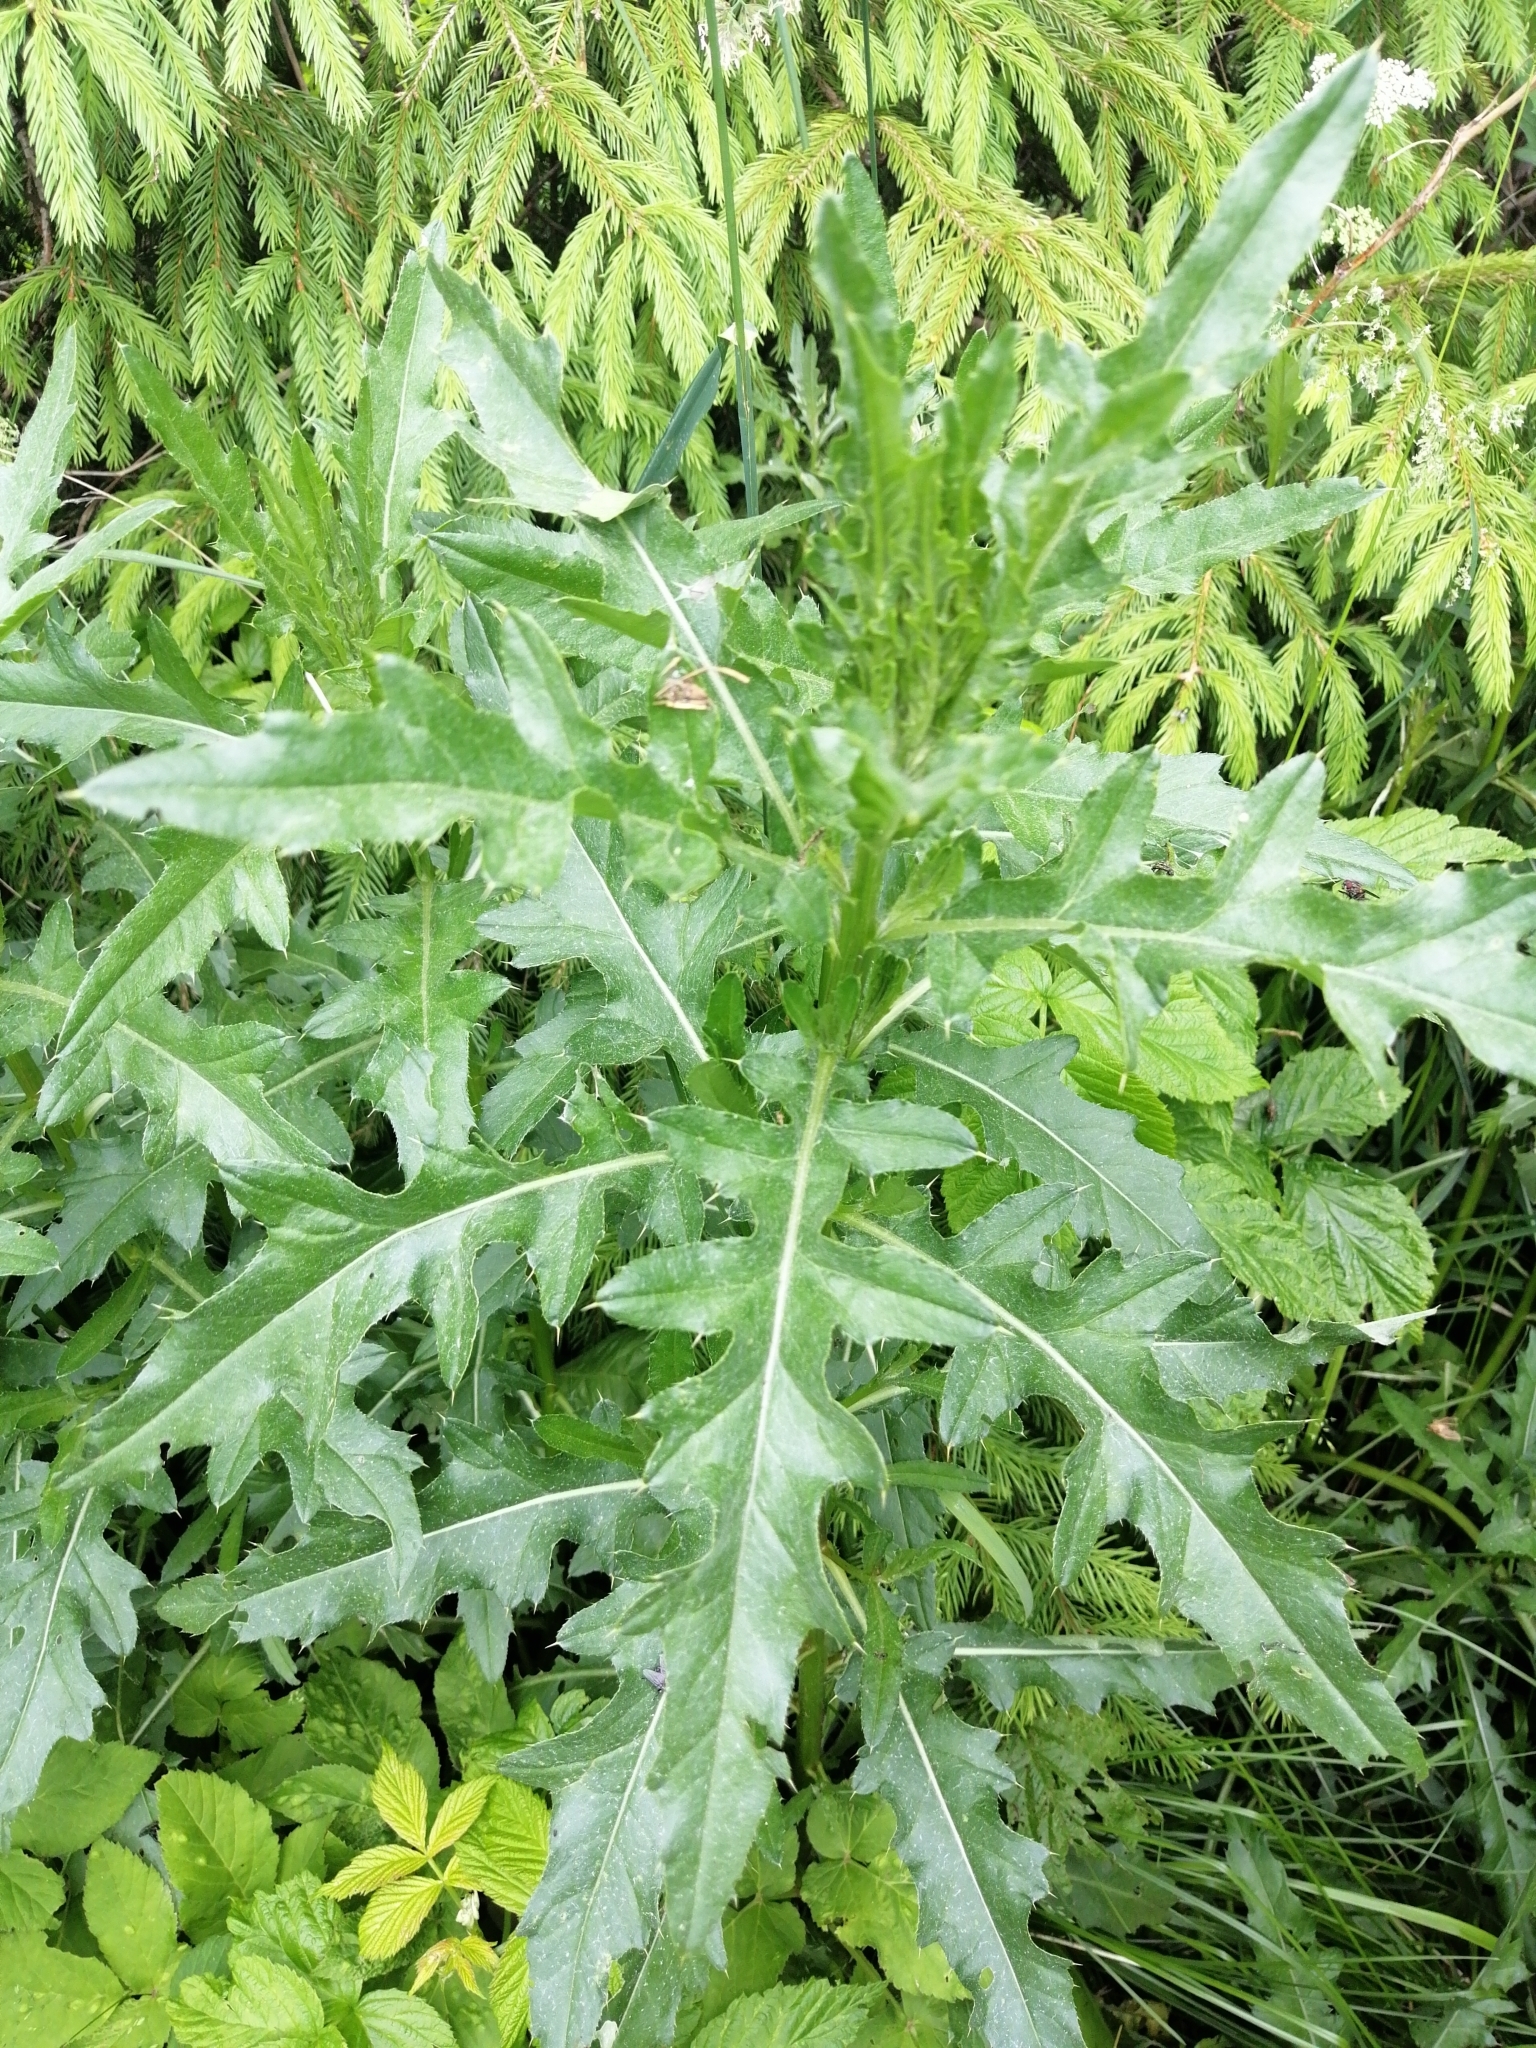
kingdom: Plantae
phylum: Tracheophyta
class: Magnoliopsida
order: Asterales
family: Asteraceae
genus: Cirsium
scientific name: Cirsium arvense
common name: Creeping thistle
